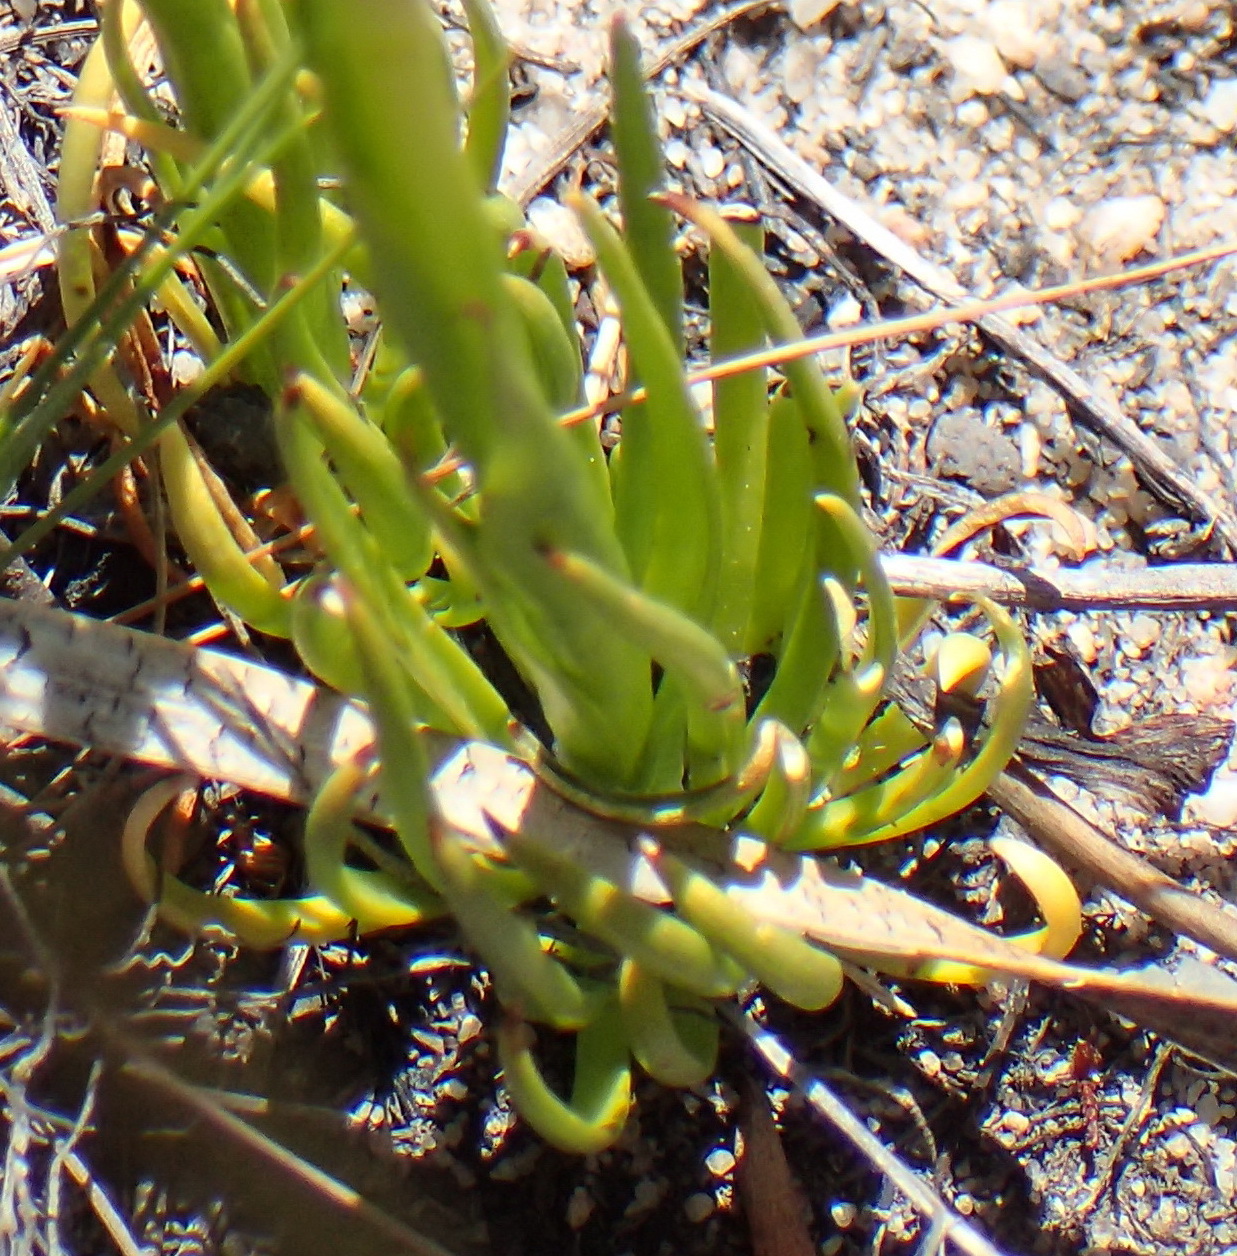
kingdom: Plantae
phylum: Tracheophyta
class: Liliopsida
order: Asparagales
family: Orchidaceae
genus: Disa
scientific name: Disa filicornis
